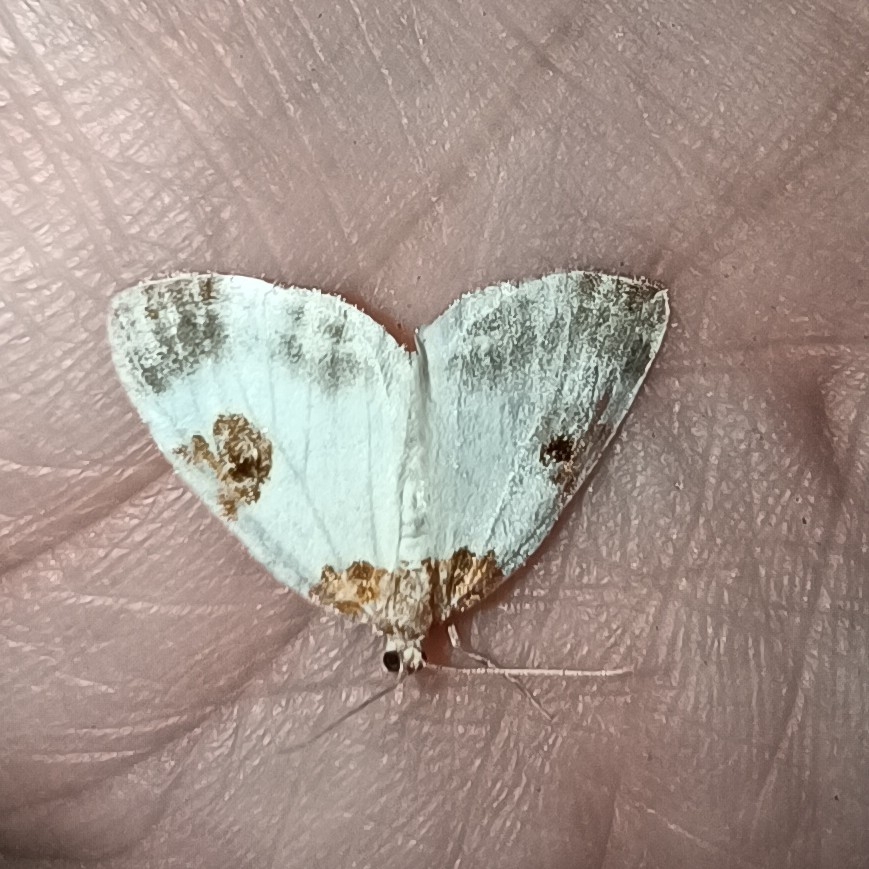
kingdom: Animalia
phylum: Arthropoda
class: Insecta
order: Lepidoptera
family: Geometridae
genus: Plemyria
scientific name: Plemyria rubiginata
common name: Blue-bordered carpet
